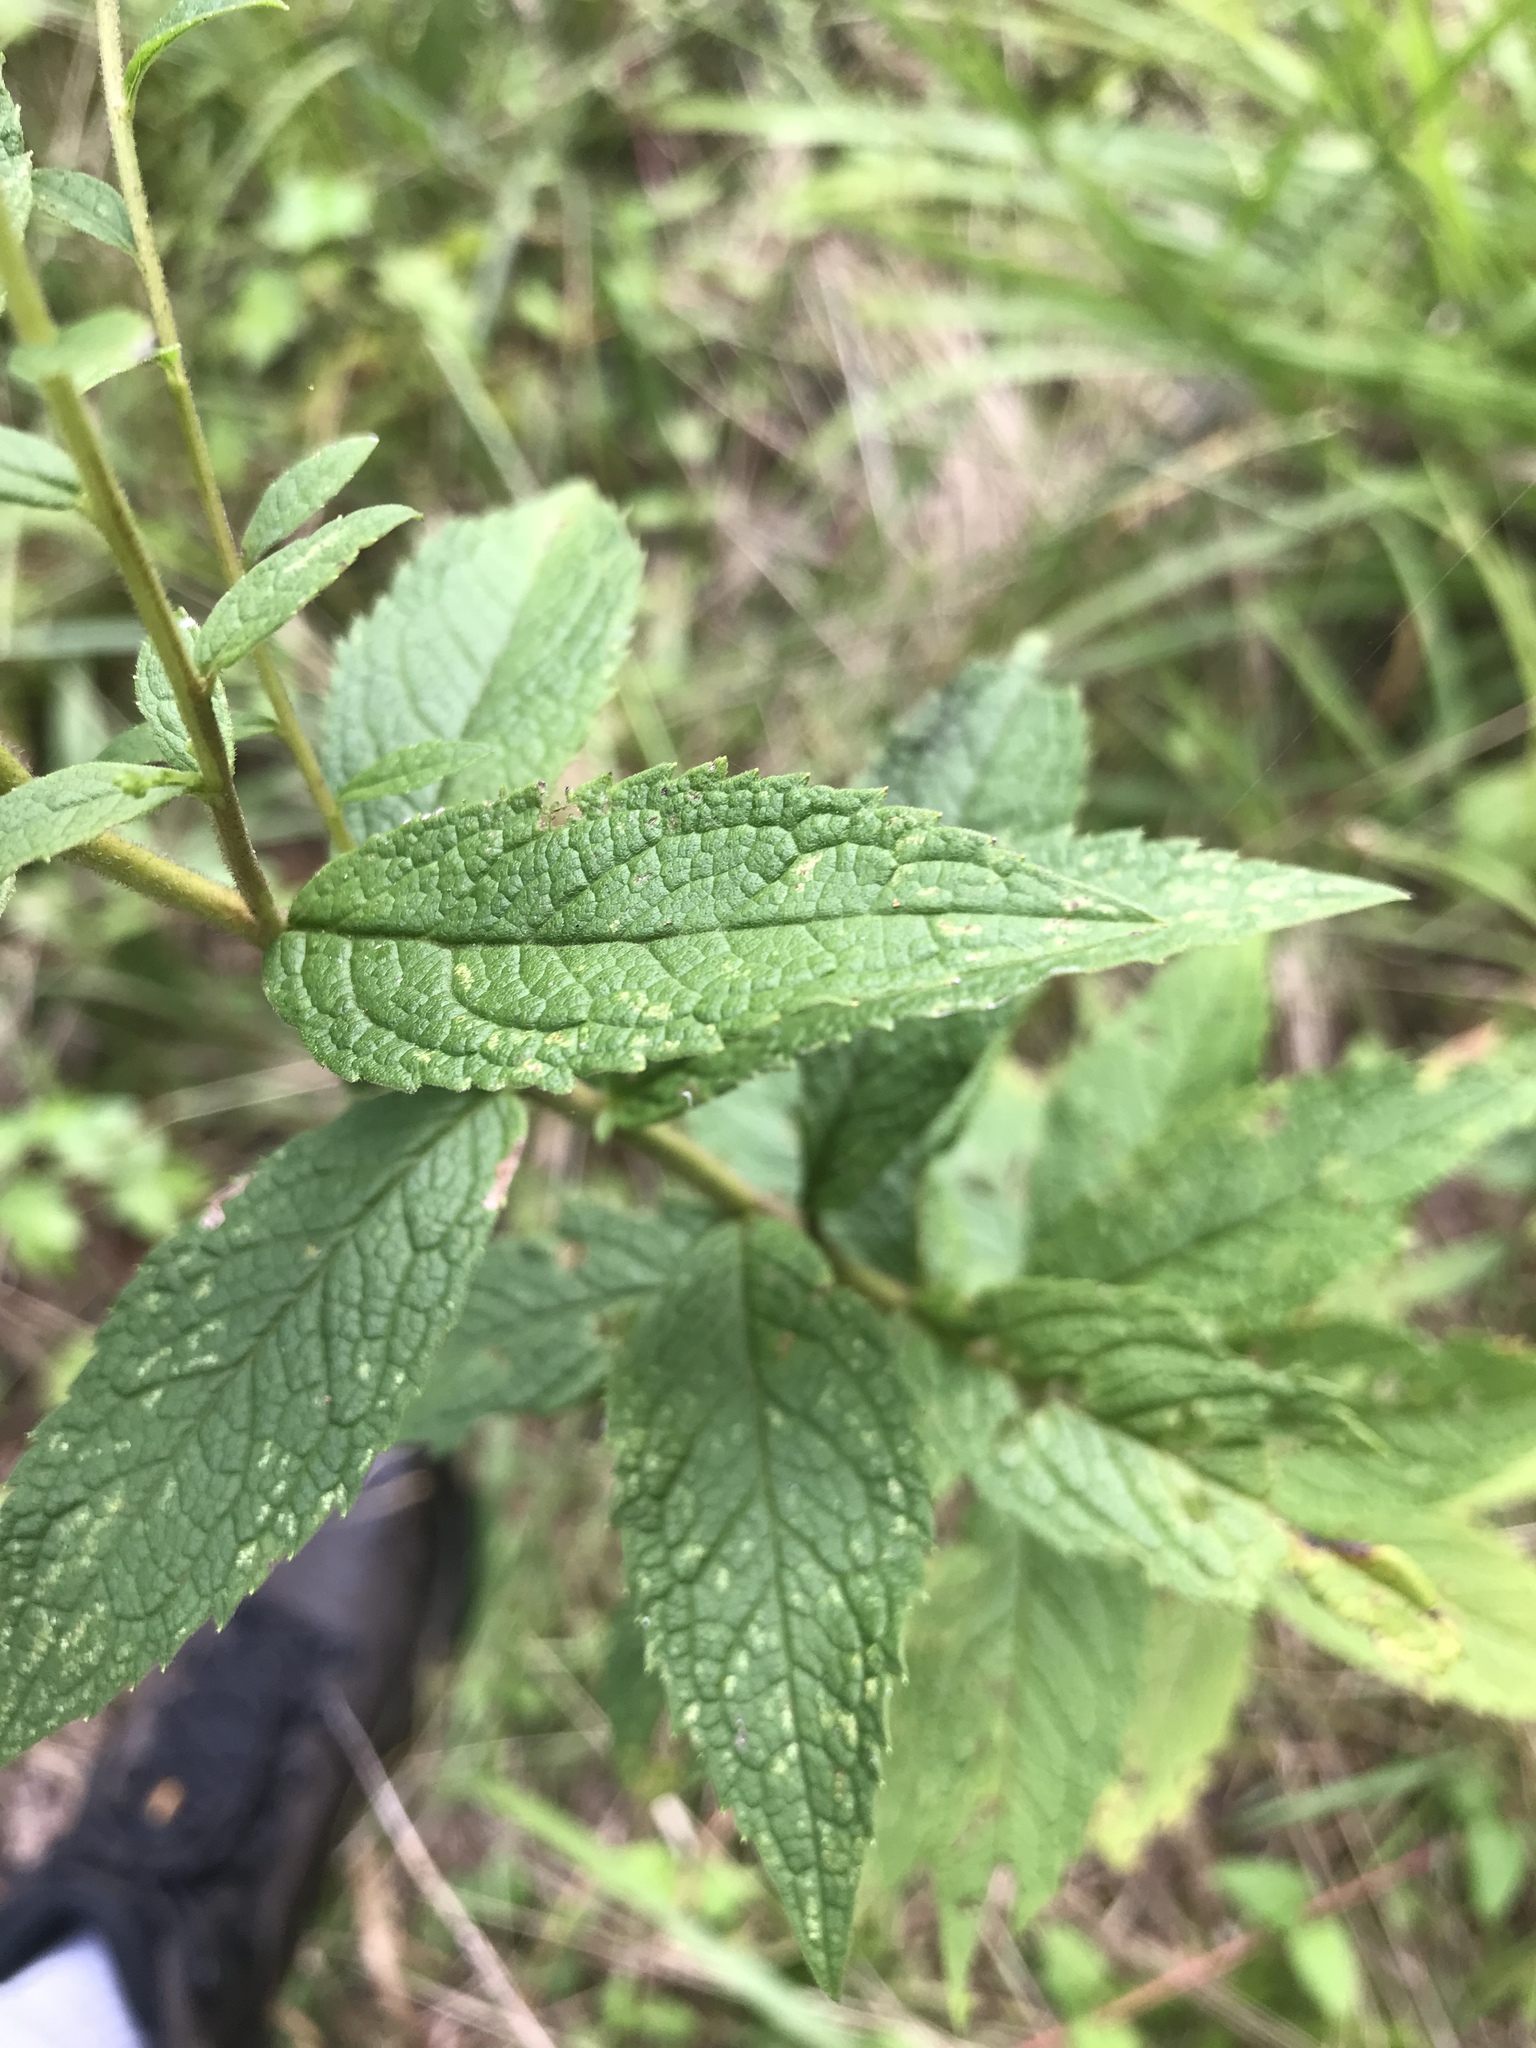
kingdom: Plantae
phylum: Tracheophyta
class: Magnoliopsida
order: Asterales
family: Asteraceae
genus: Solidago
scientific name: Solidago rugosa
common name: Rough-stemmed goldenrod
